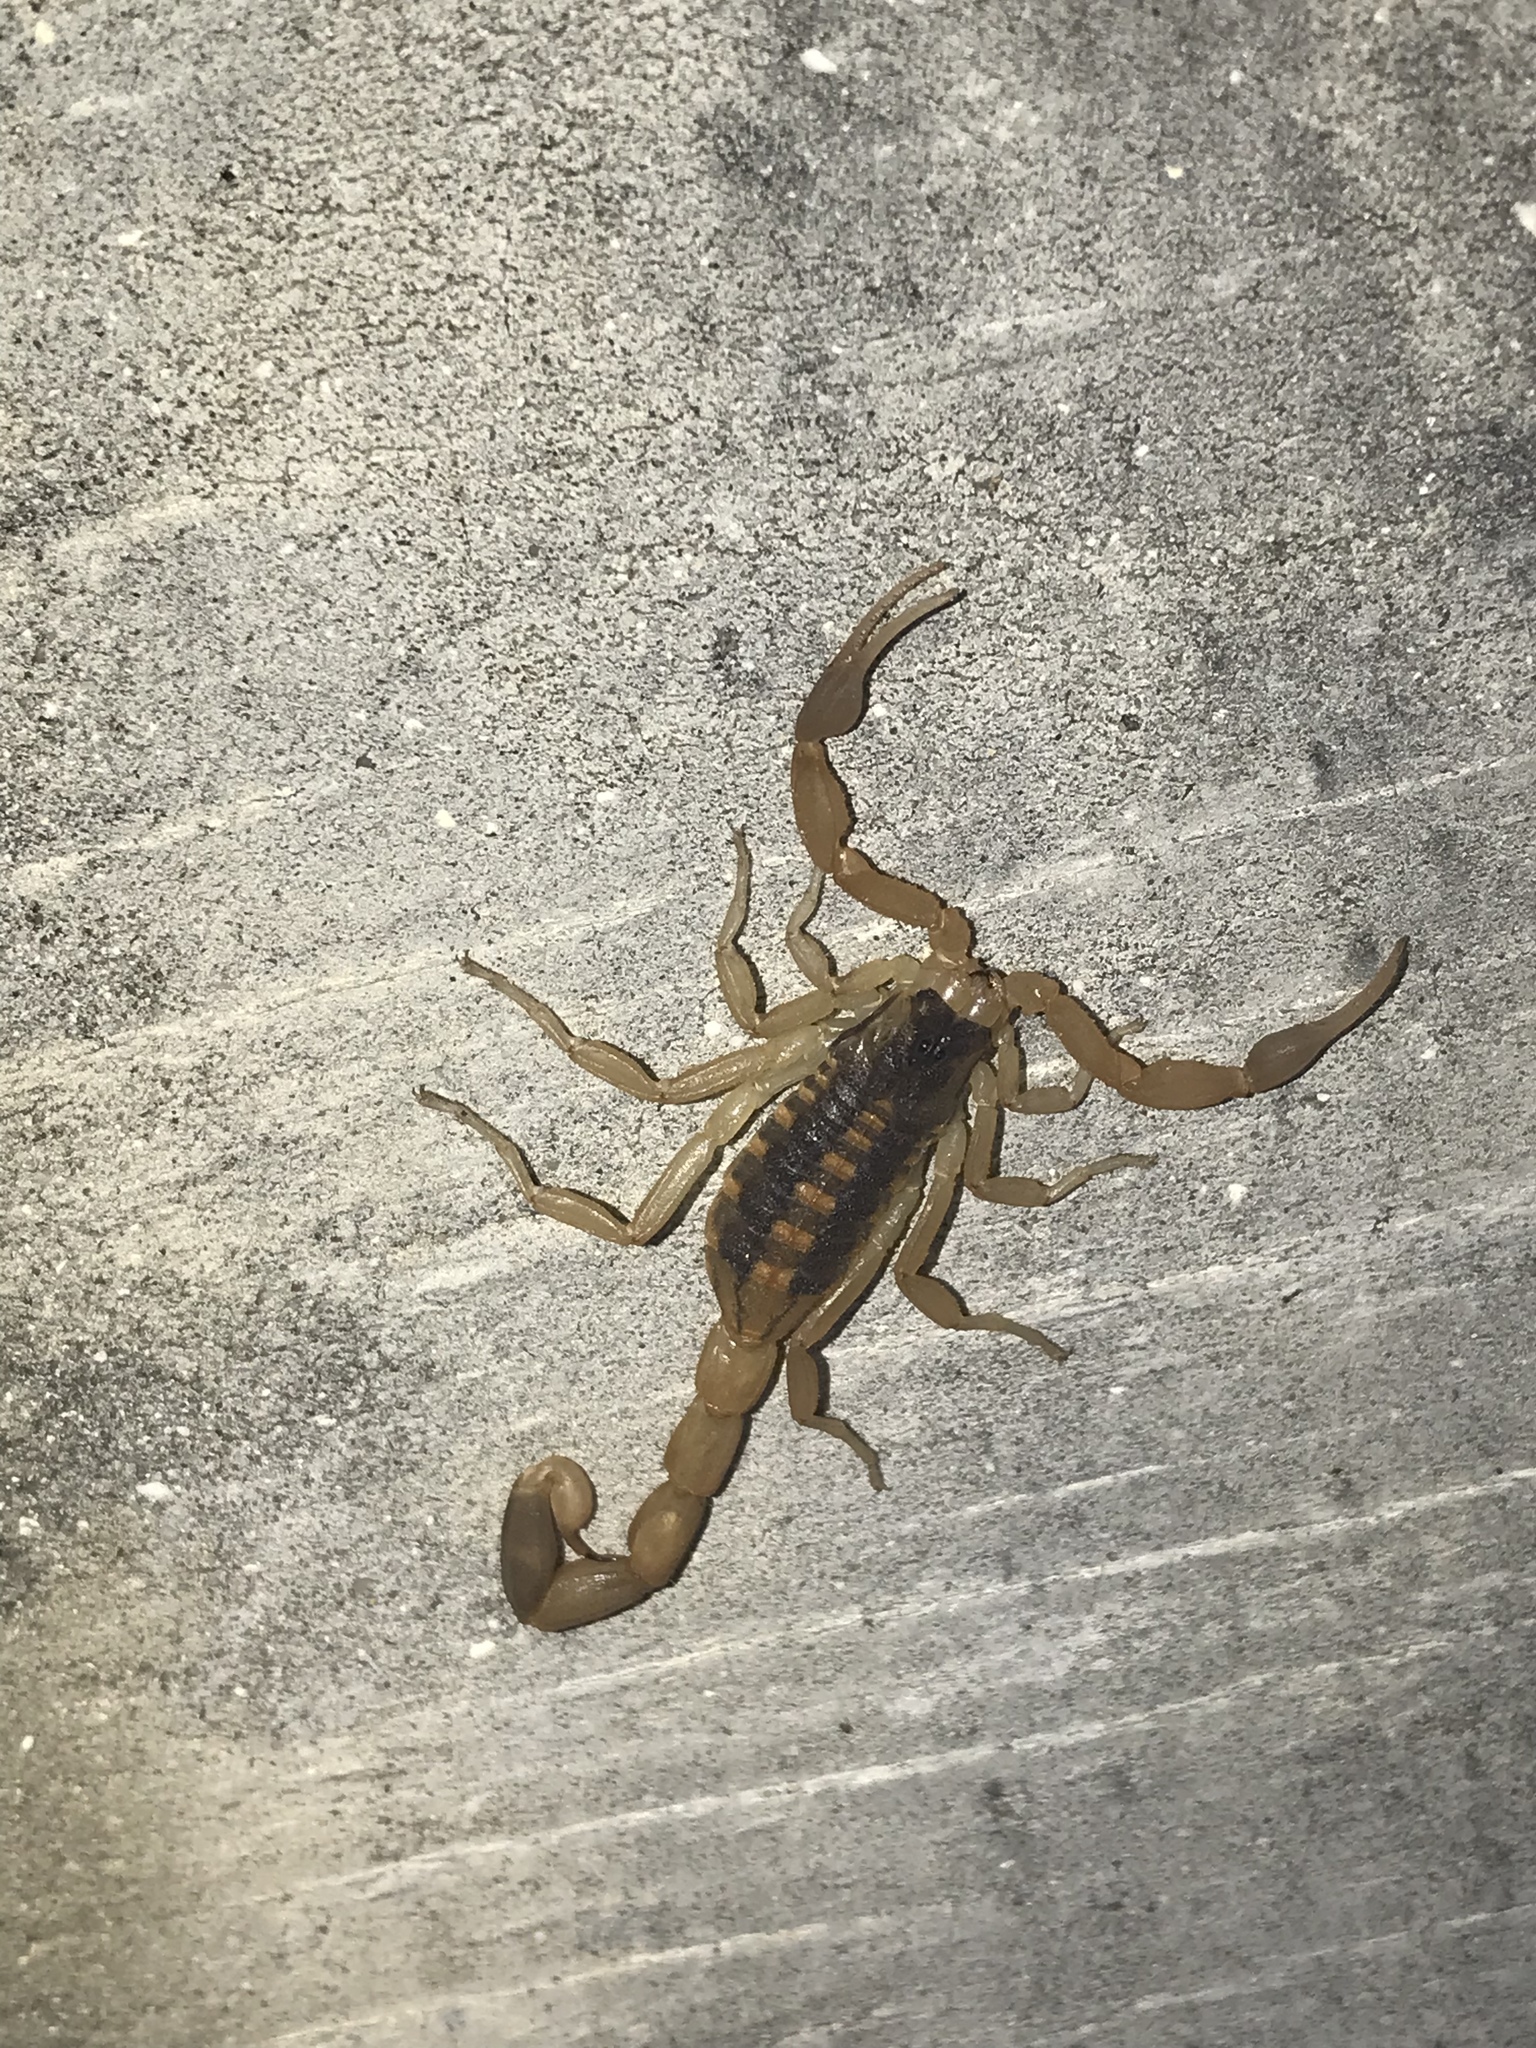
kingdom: Animalia
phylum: Arthropoda
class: Arachnida
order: Scorpiones
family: Buthidae
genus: Centruroides
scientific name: Centruroides vittatus
